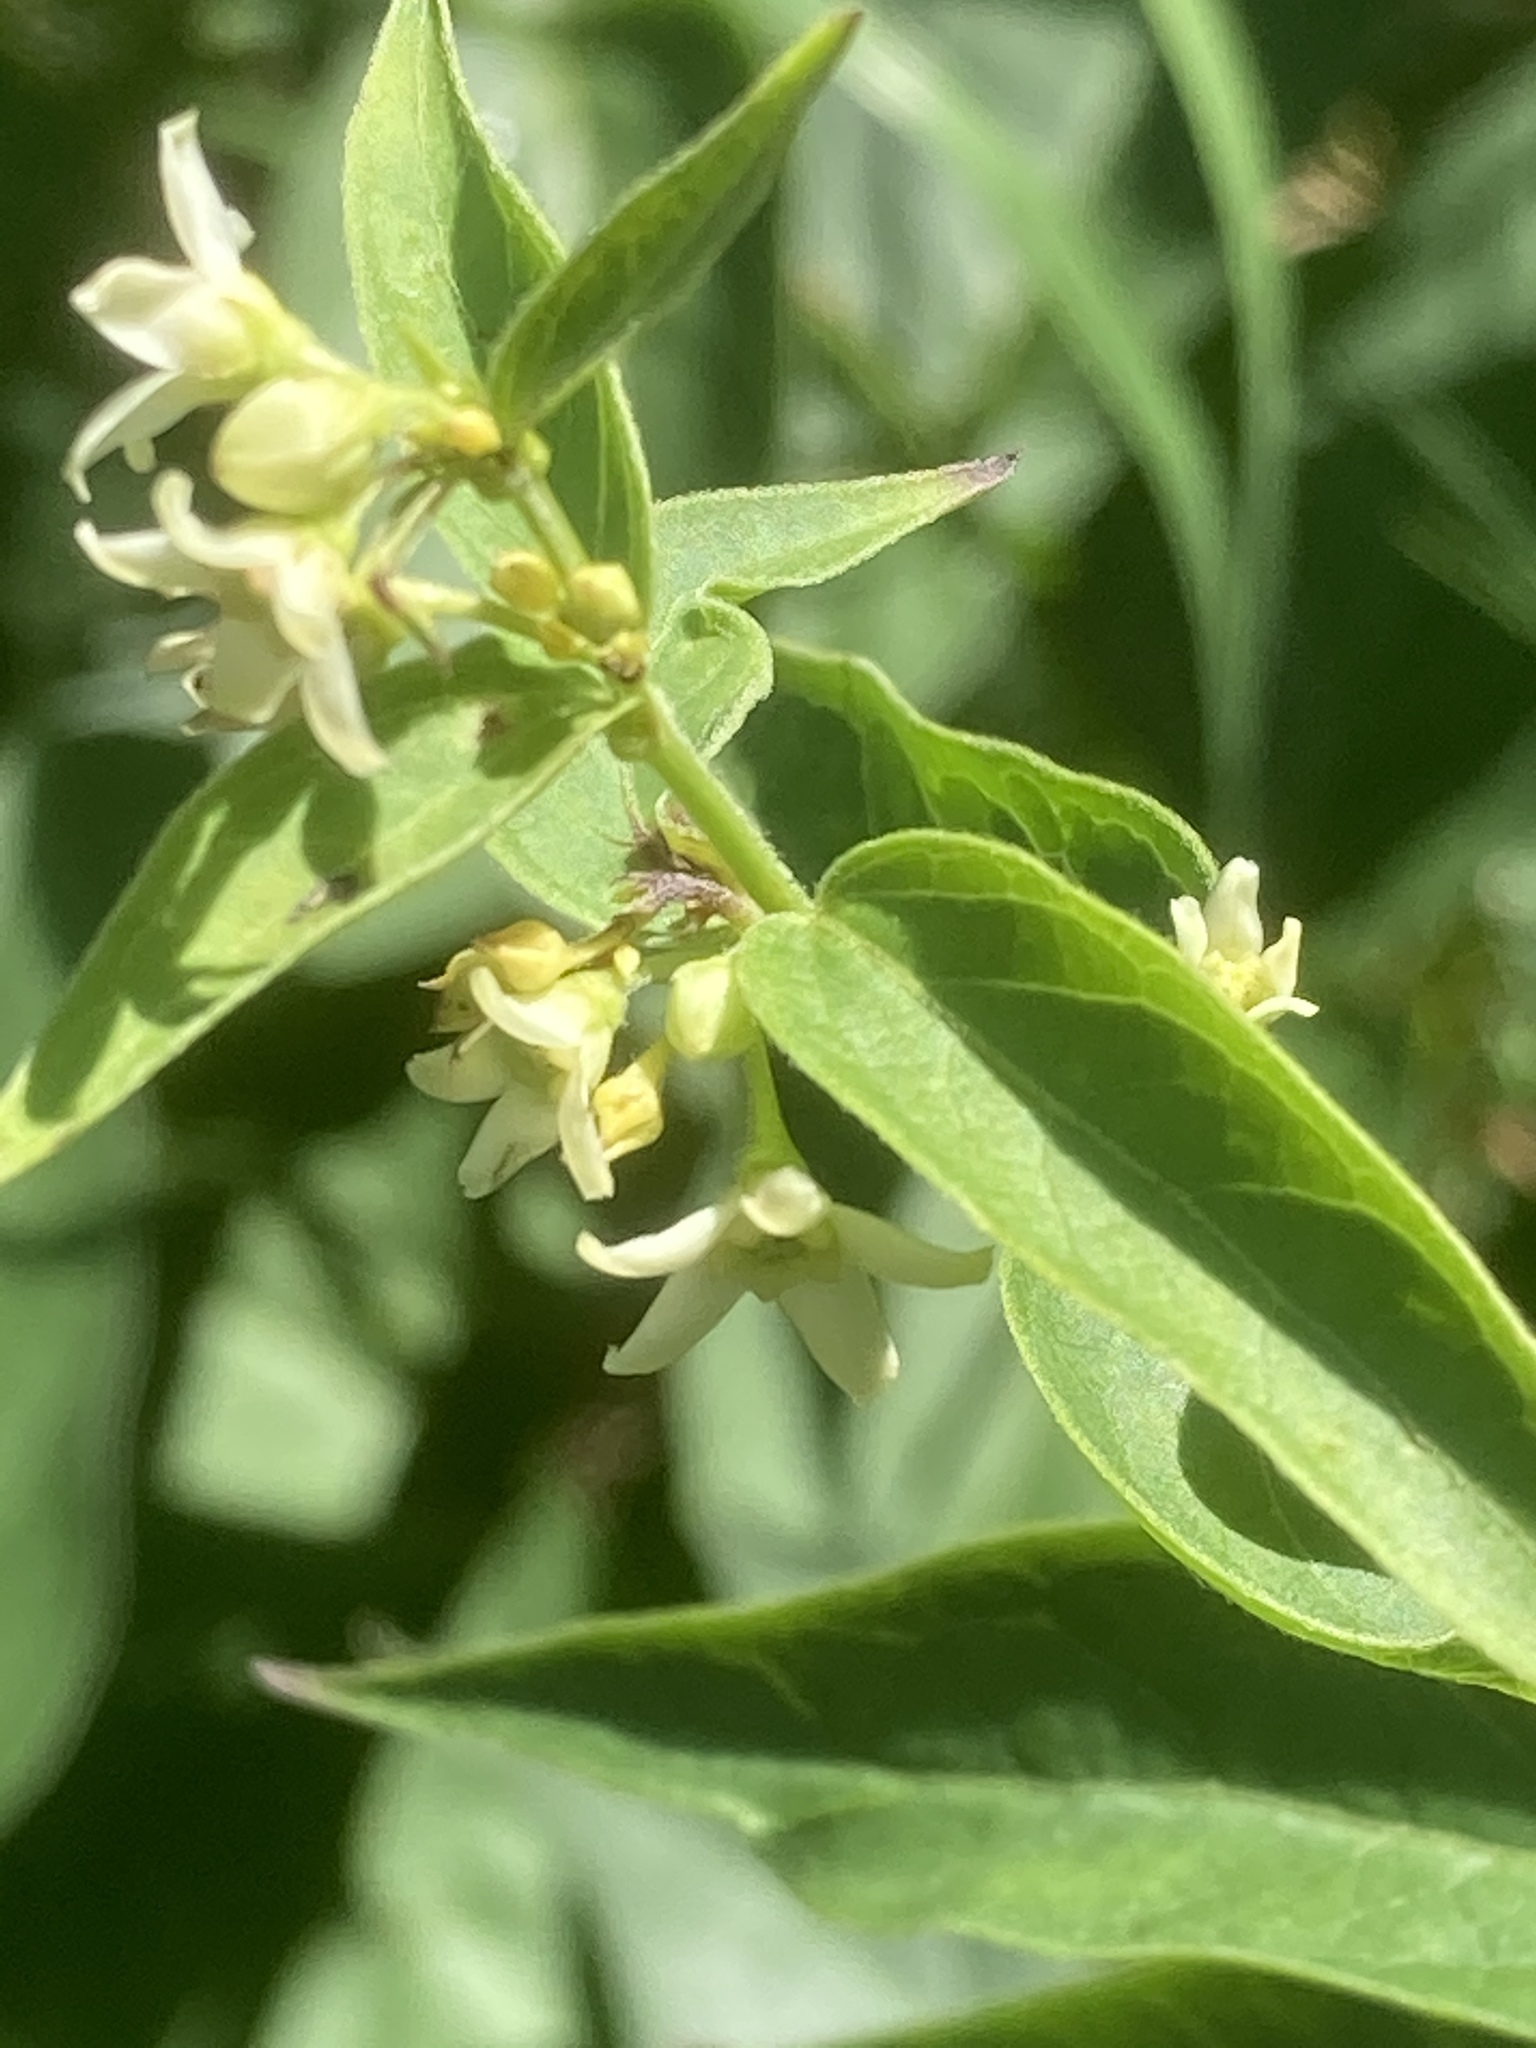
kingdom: Plantae
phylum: Tracheophyta
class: Magnoliopsida
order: Gentianales
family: Apocynaceae
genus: Vincetoxicum
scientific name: Vincetoxicum hirundinaria
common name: White swallowwort
